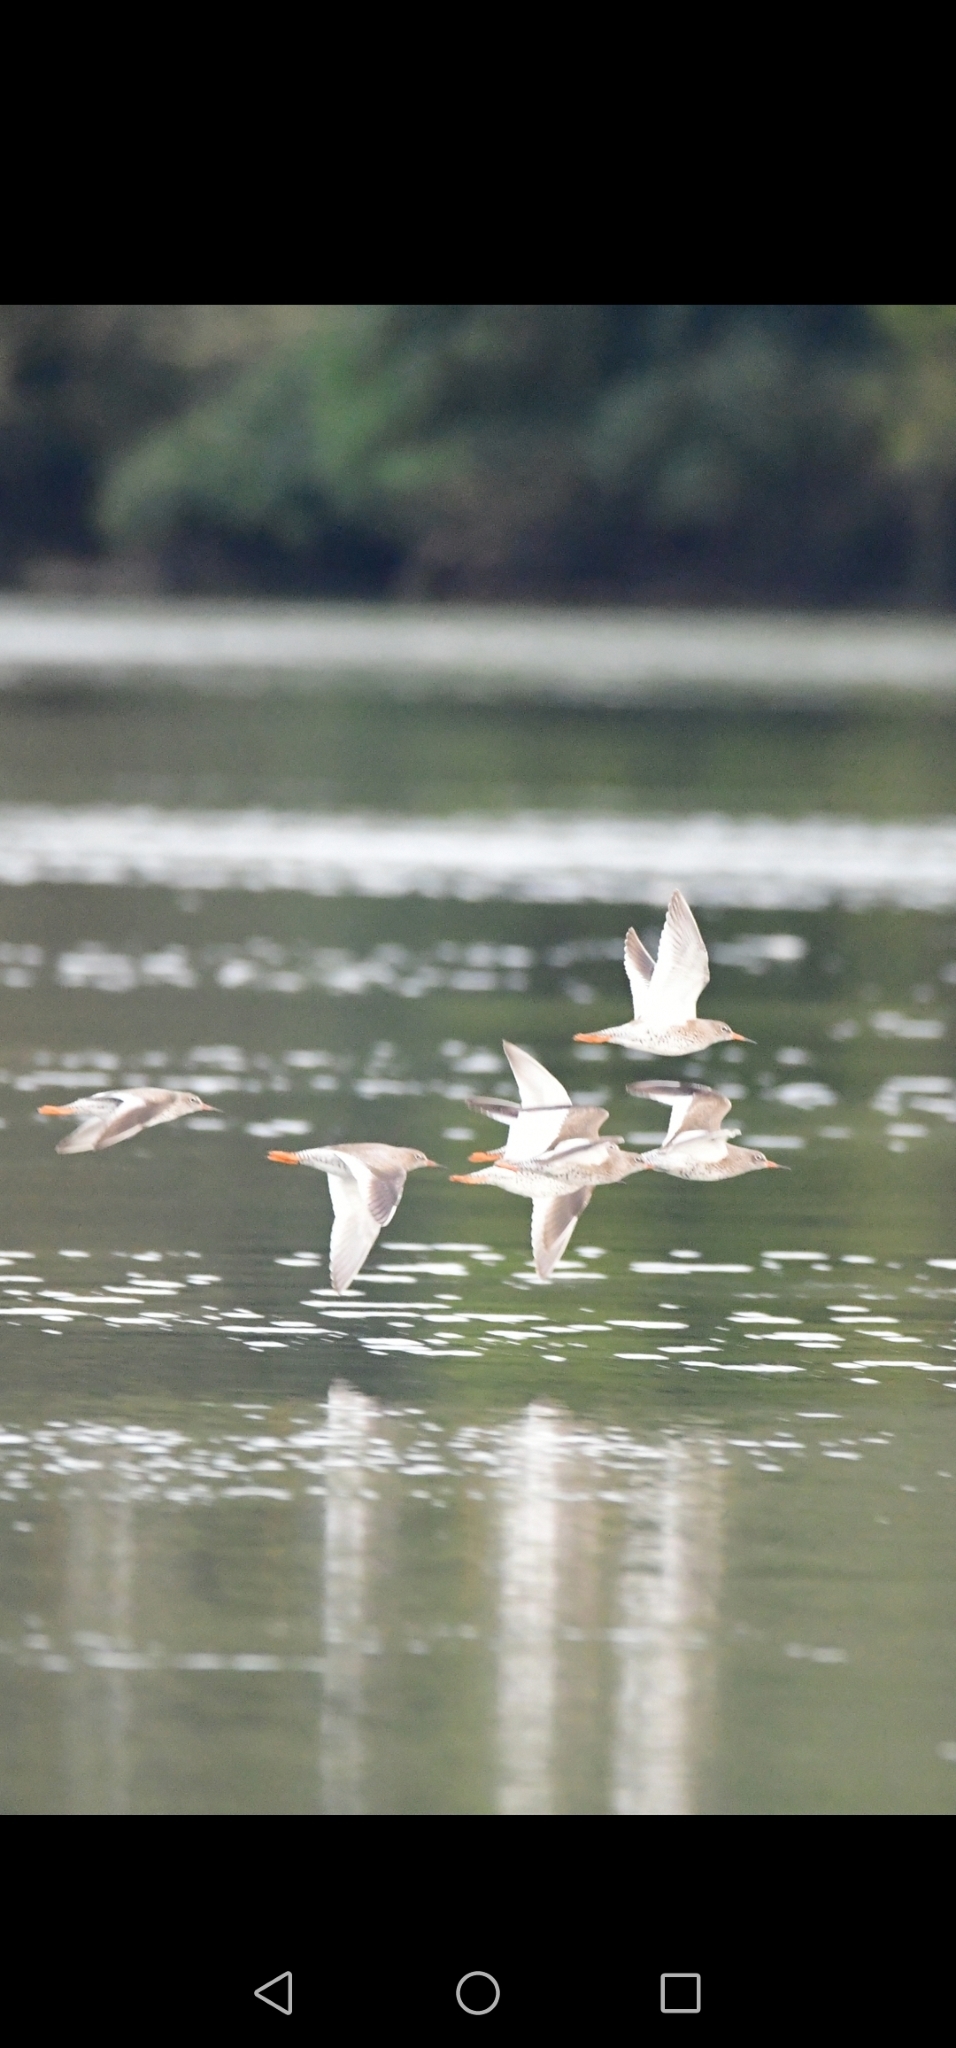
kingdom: Animalia
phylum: Chordata
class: Aves
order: Charadriiformes
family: Scolopacidae
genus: Tringa
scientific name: Tringa totanus
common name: Common redshank
